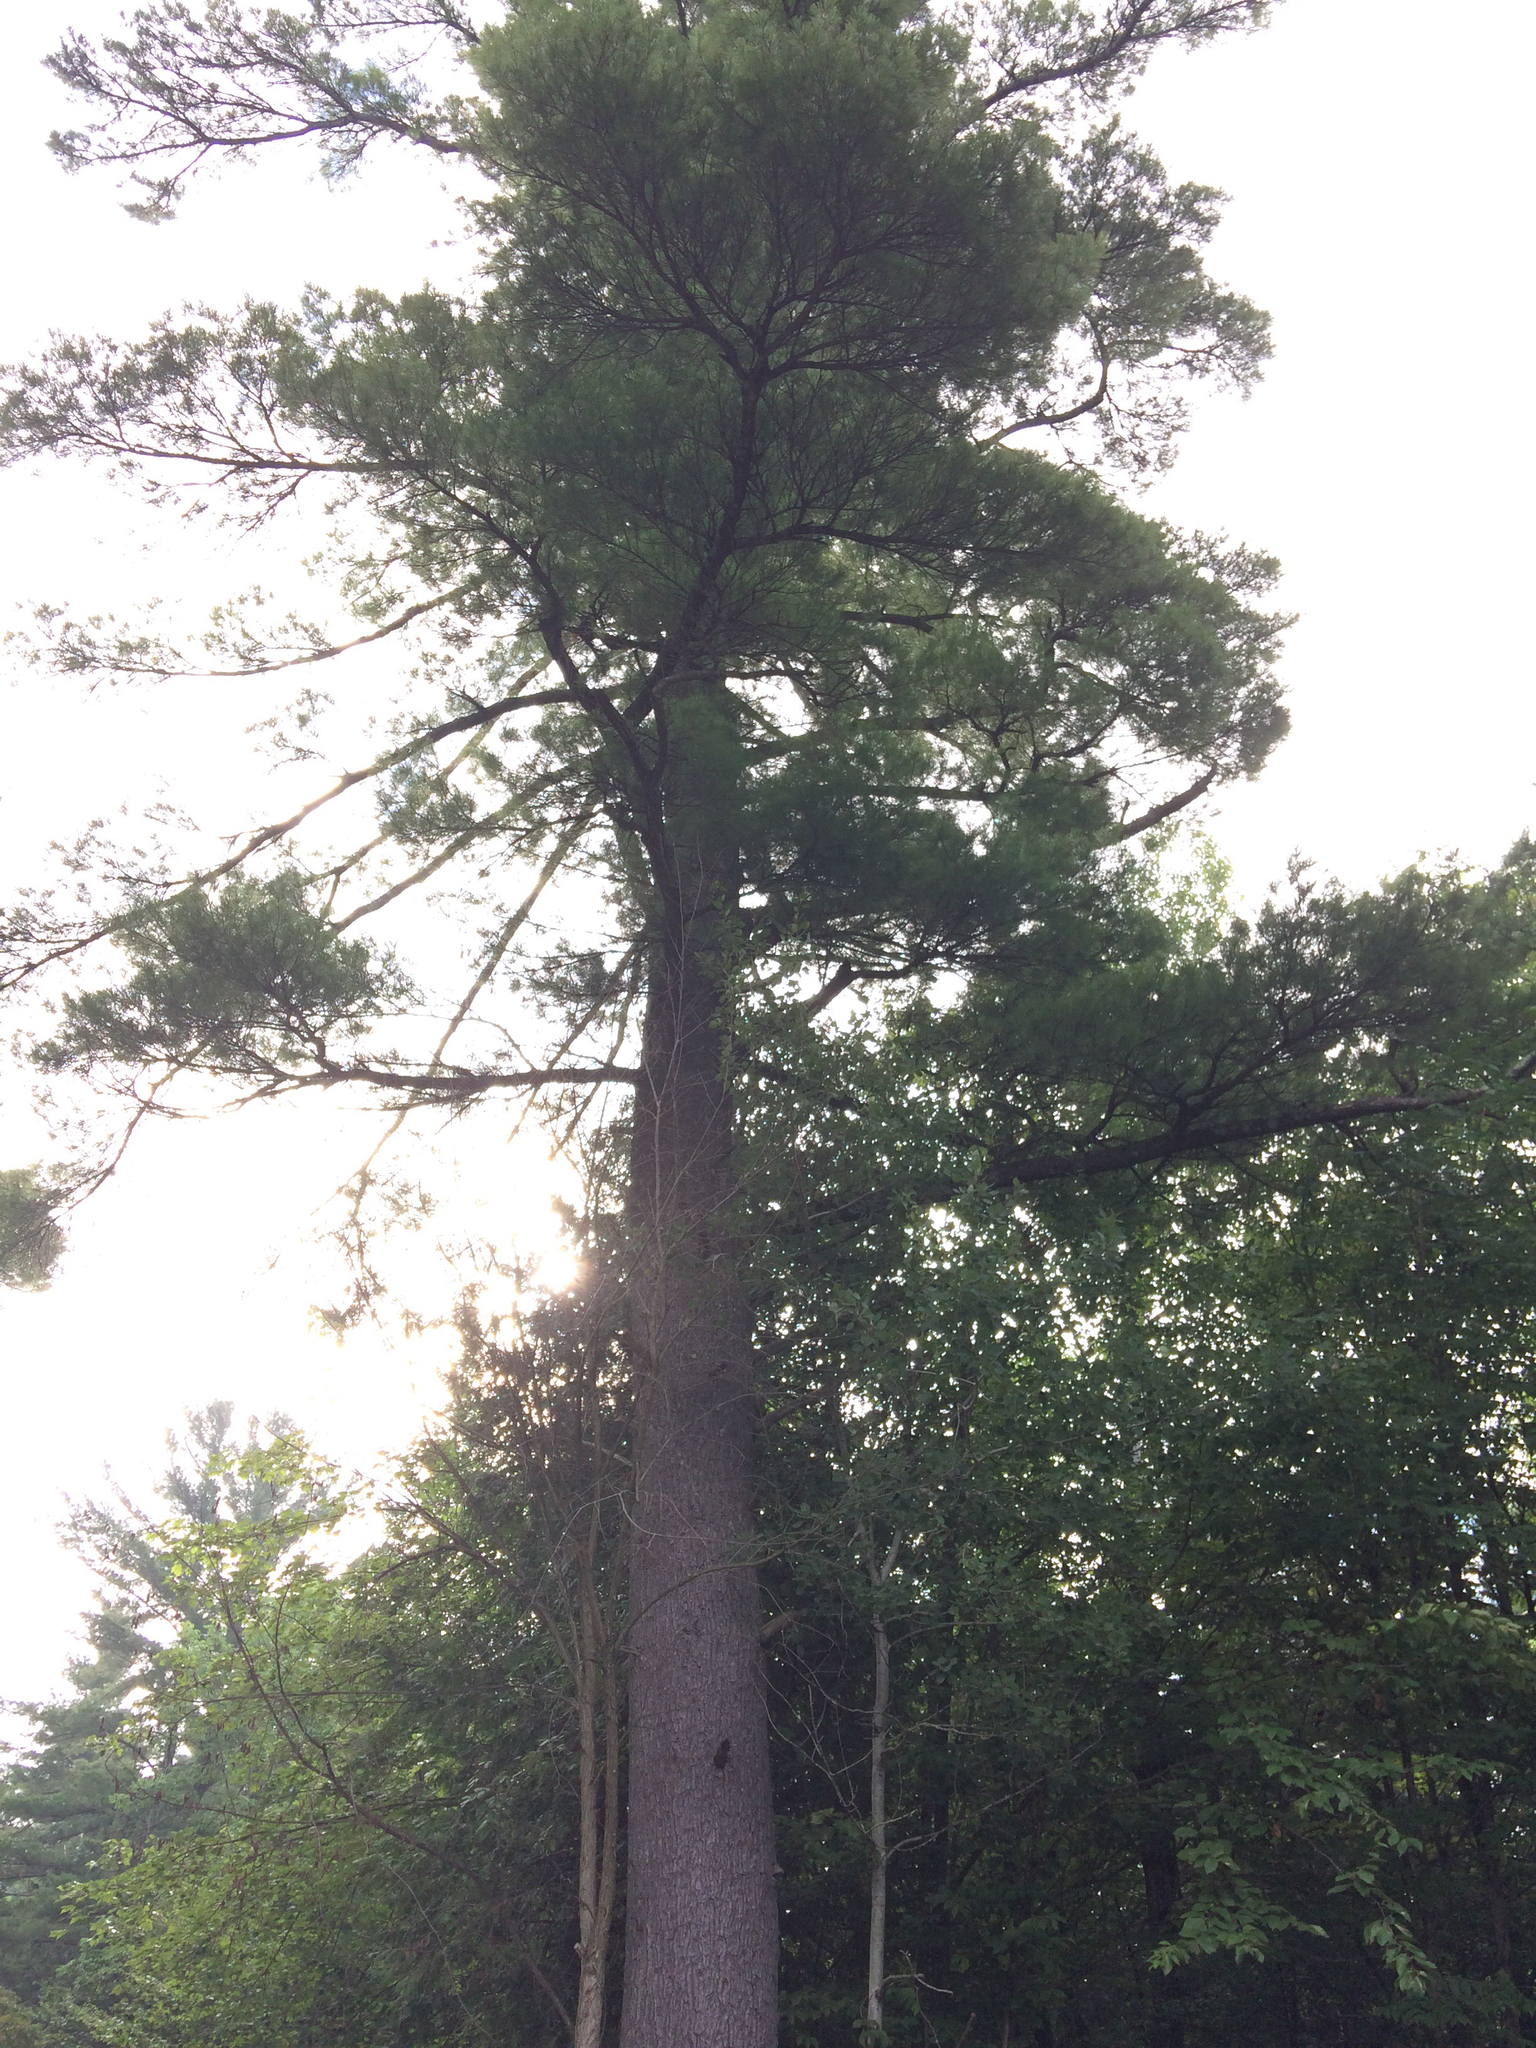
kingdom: Plantae
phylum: Tracheophyta
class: Pinopsida
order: Pinales
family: Pinaceae
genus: Pinus
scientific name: Pinus strobus
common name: Weymouth pine
